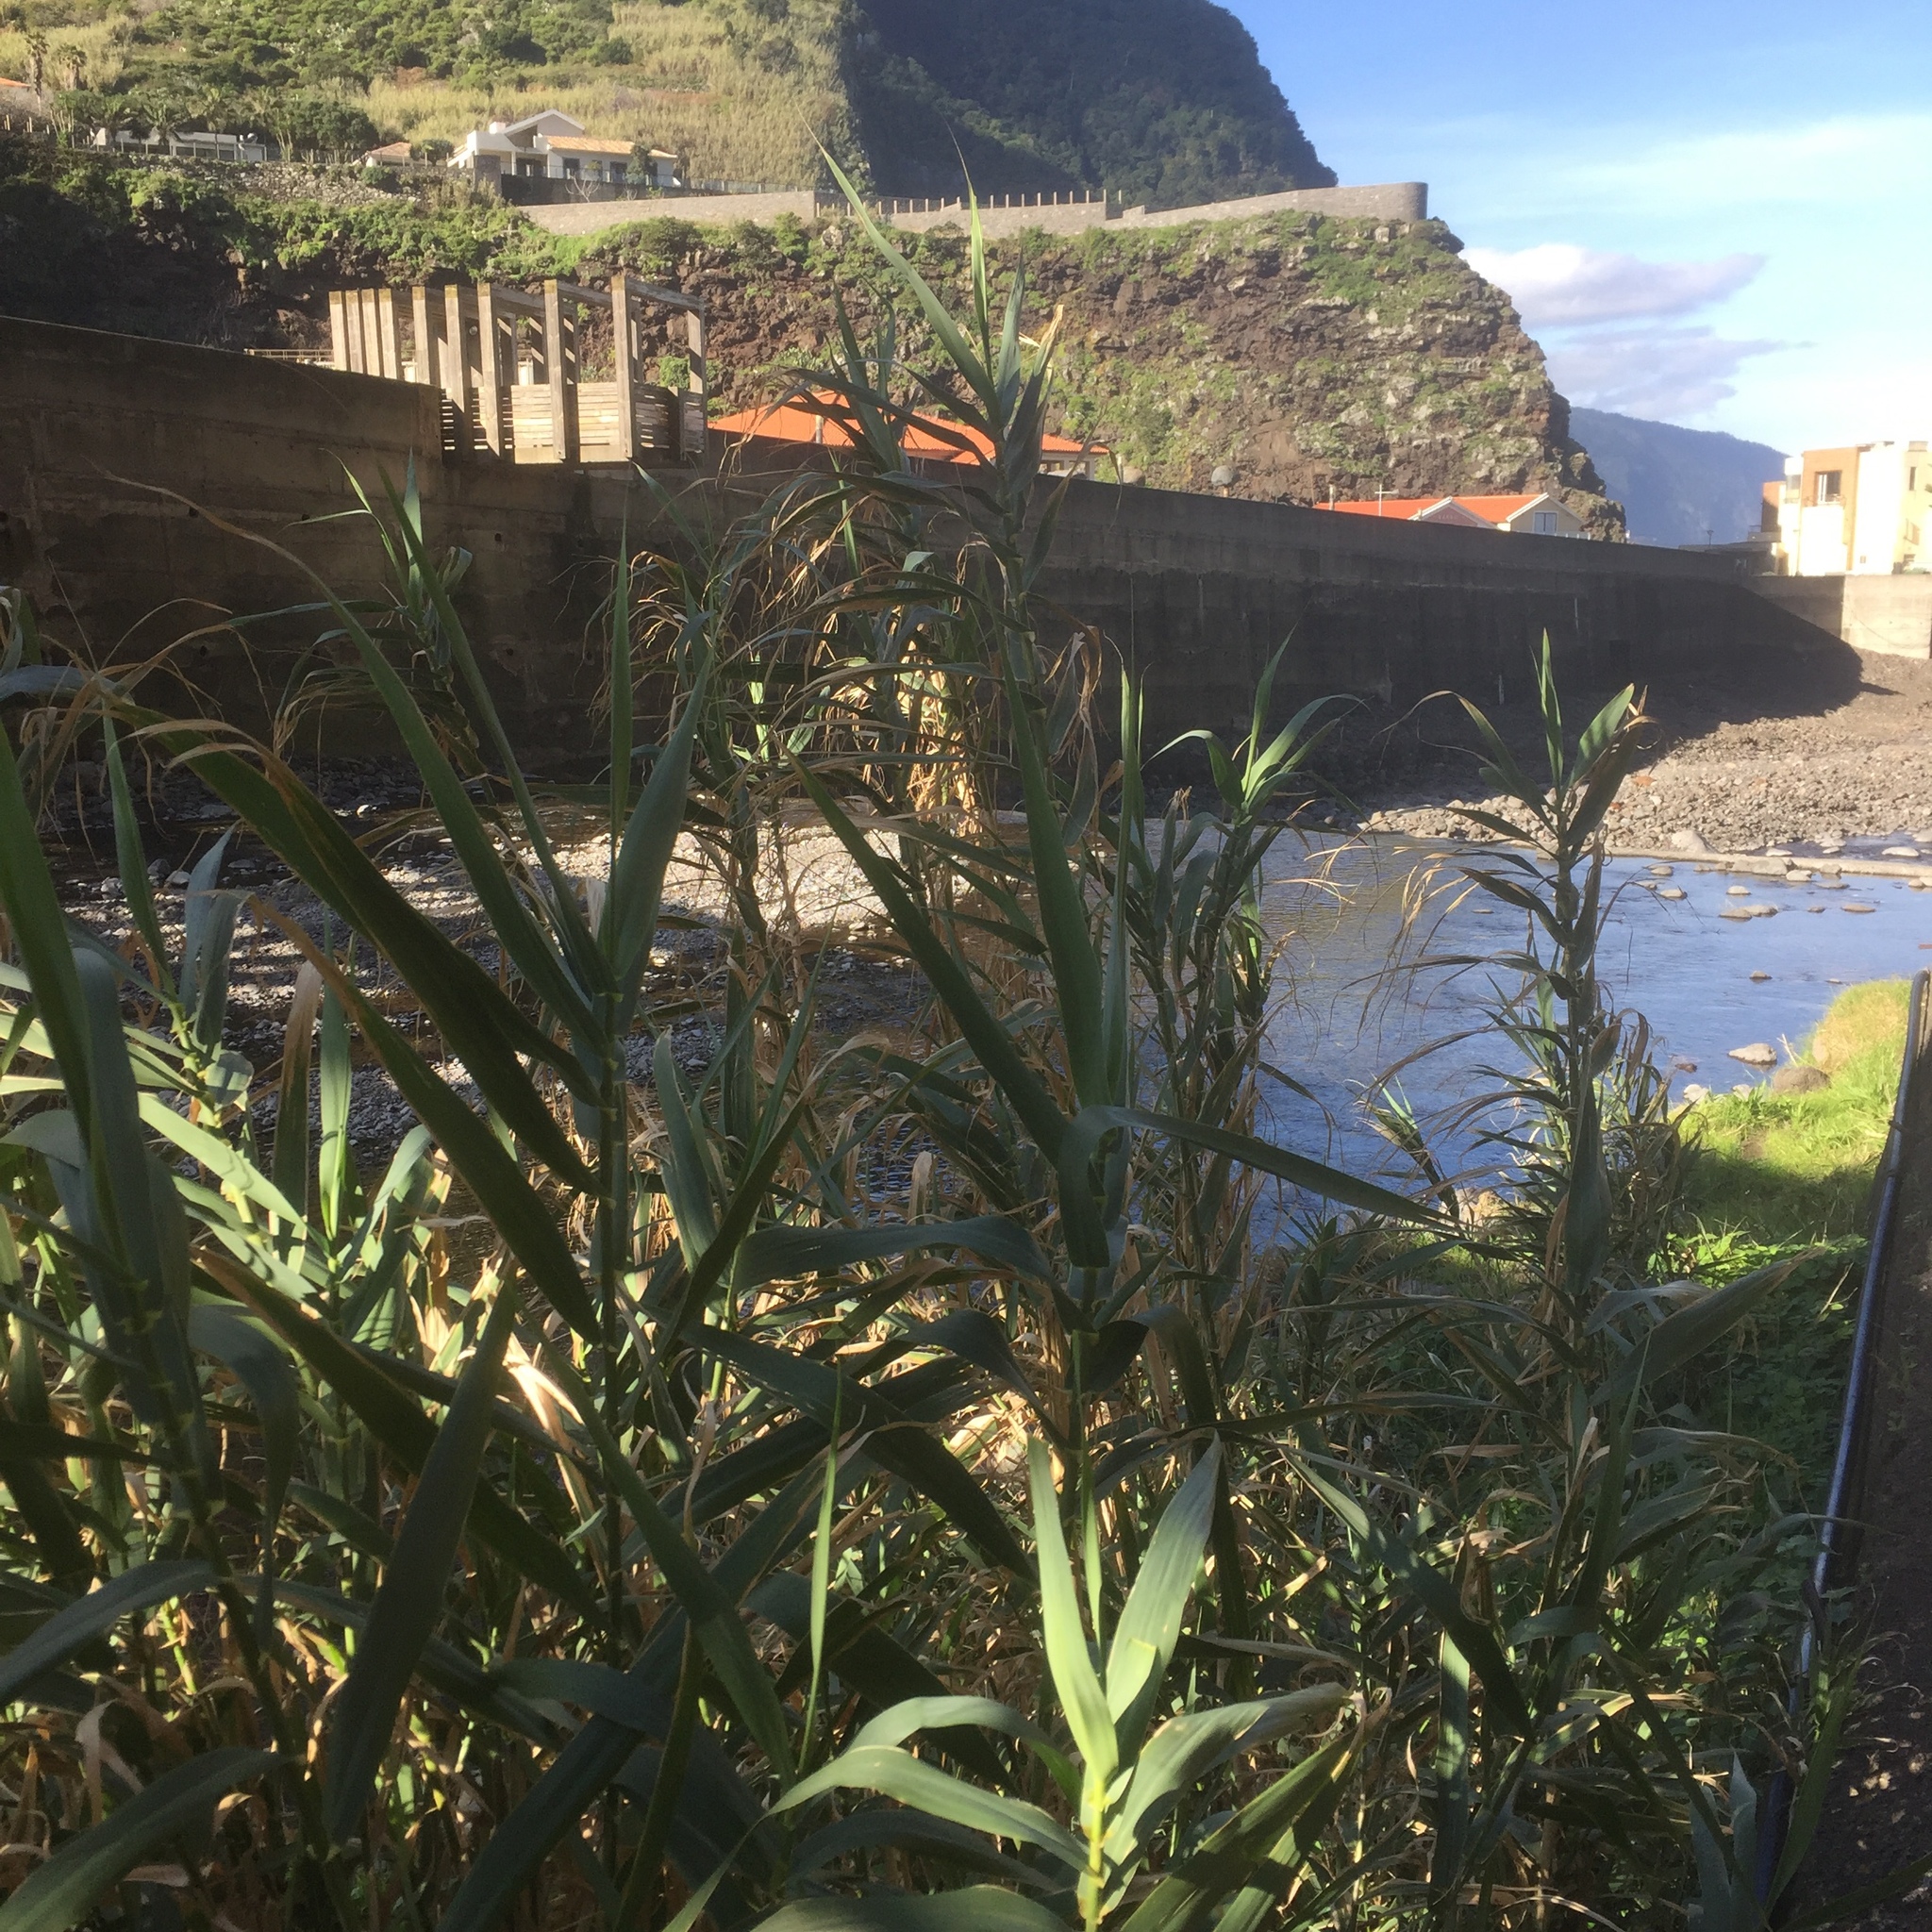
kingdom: Plantae
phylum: Tracheophyta
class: Liliopsida
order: Poales
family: Poaceae
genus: Arundo
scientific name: Arundo donax
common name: Giant reed
